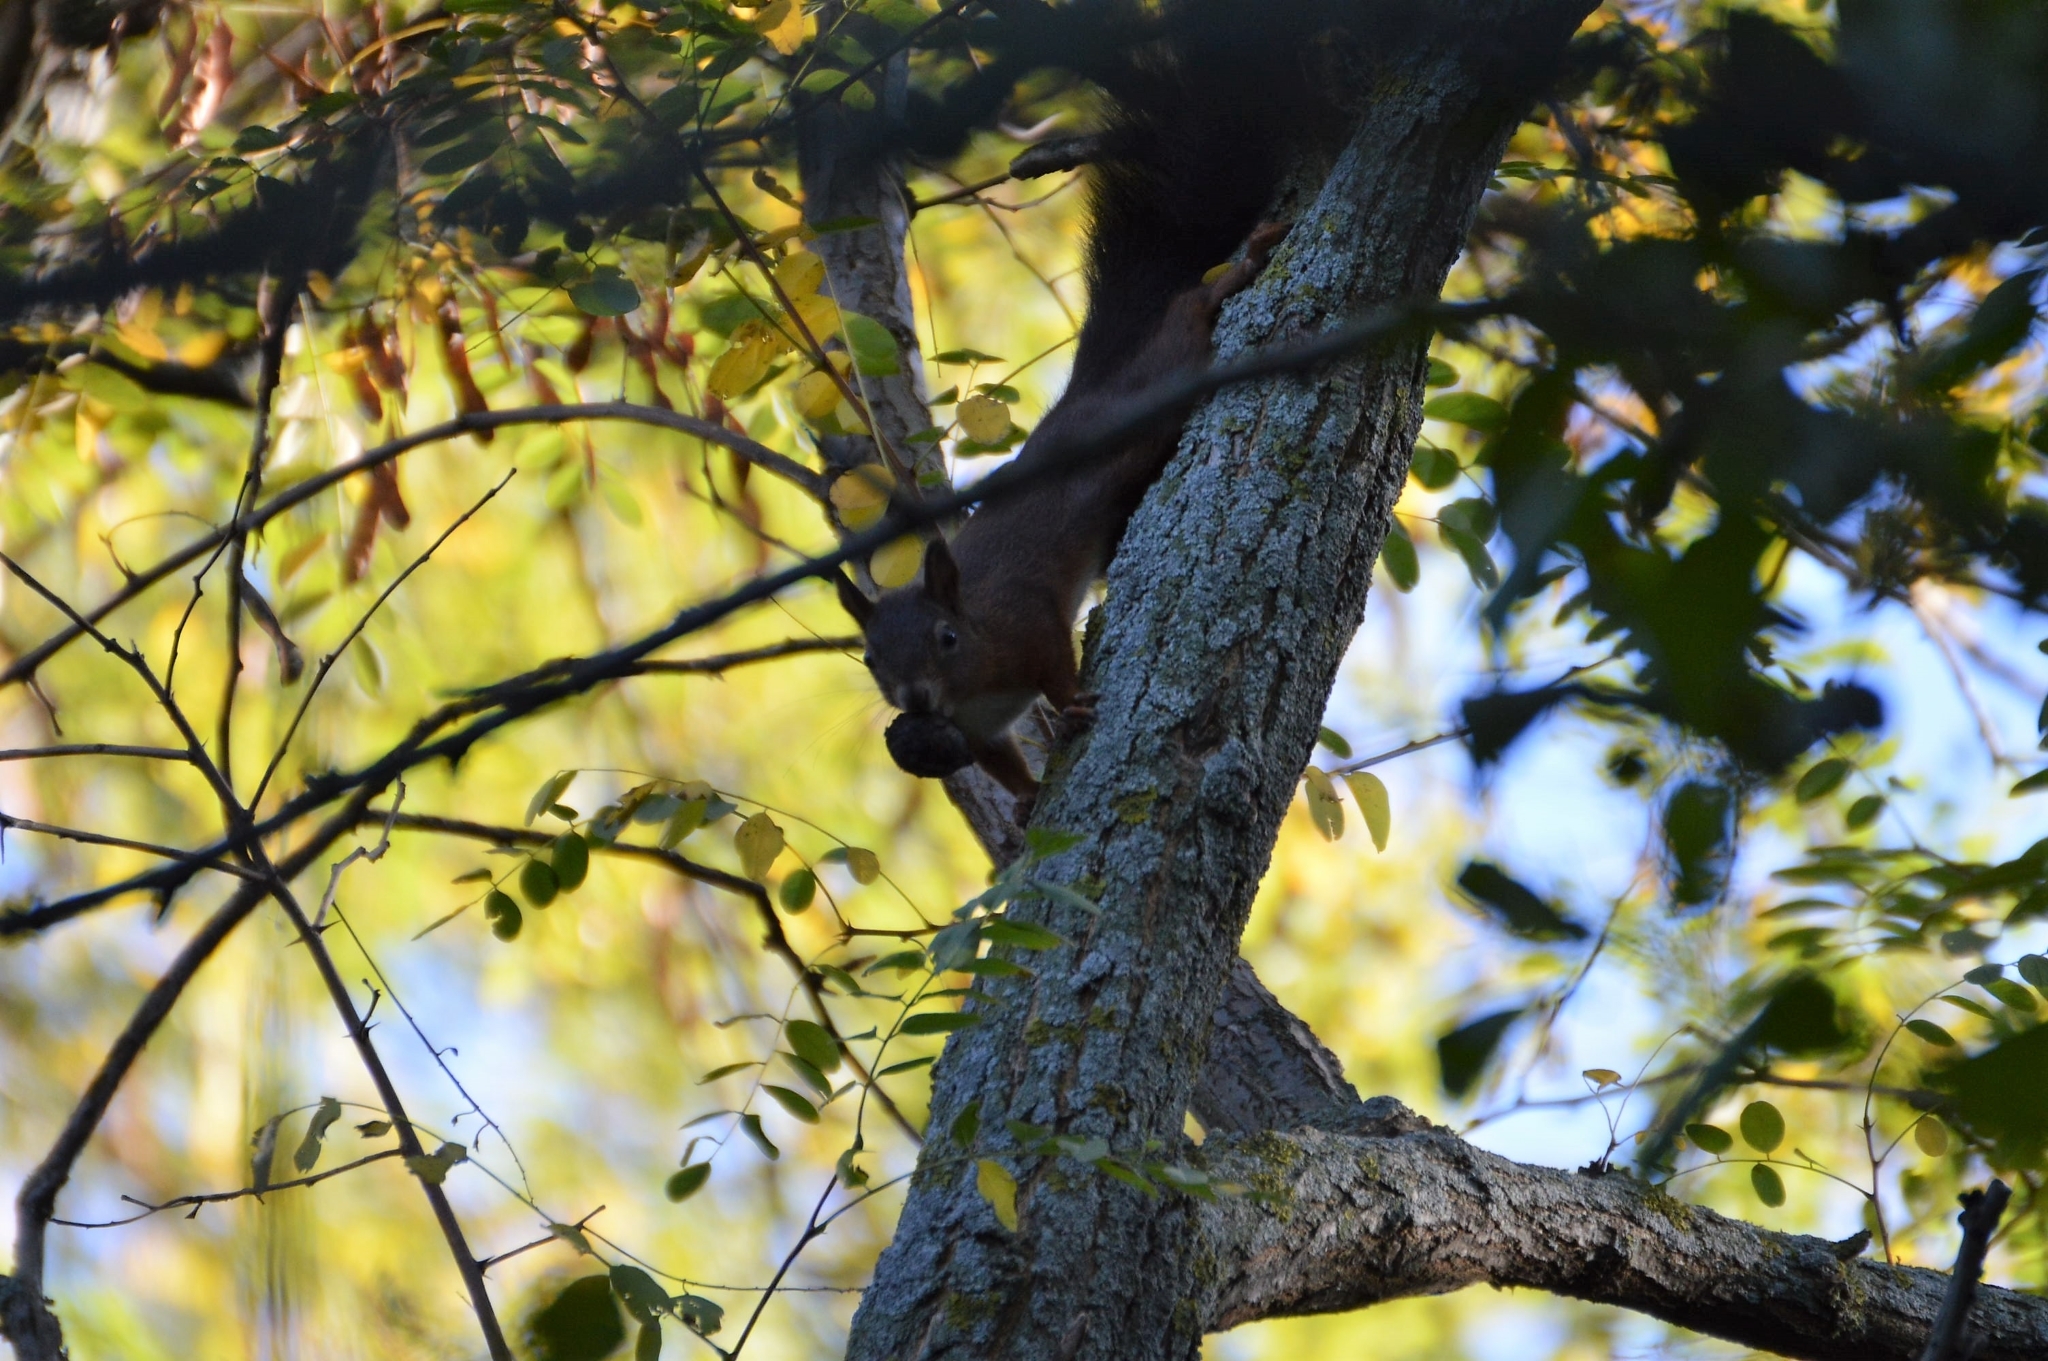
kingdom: Animalia
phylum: Chordata
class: Mammalia
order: Rodentia
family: Sciuridae
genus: Sciurus
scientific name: Sciurus vulgaris
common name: Eurasian red squirrel
